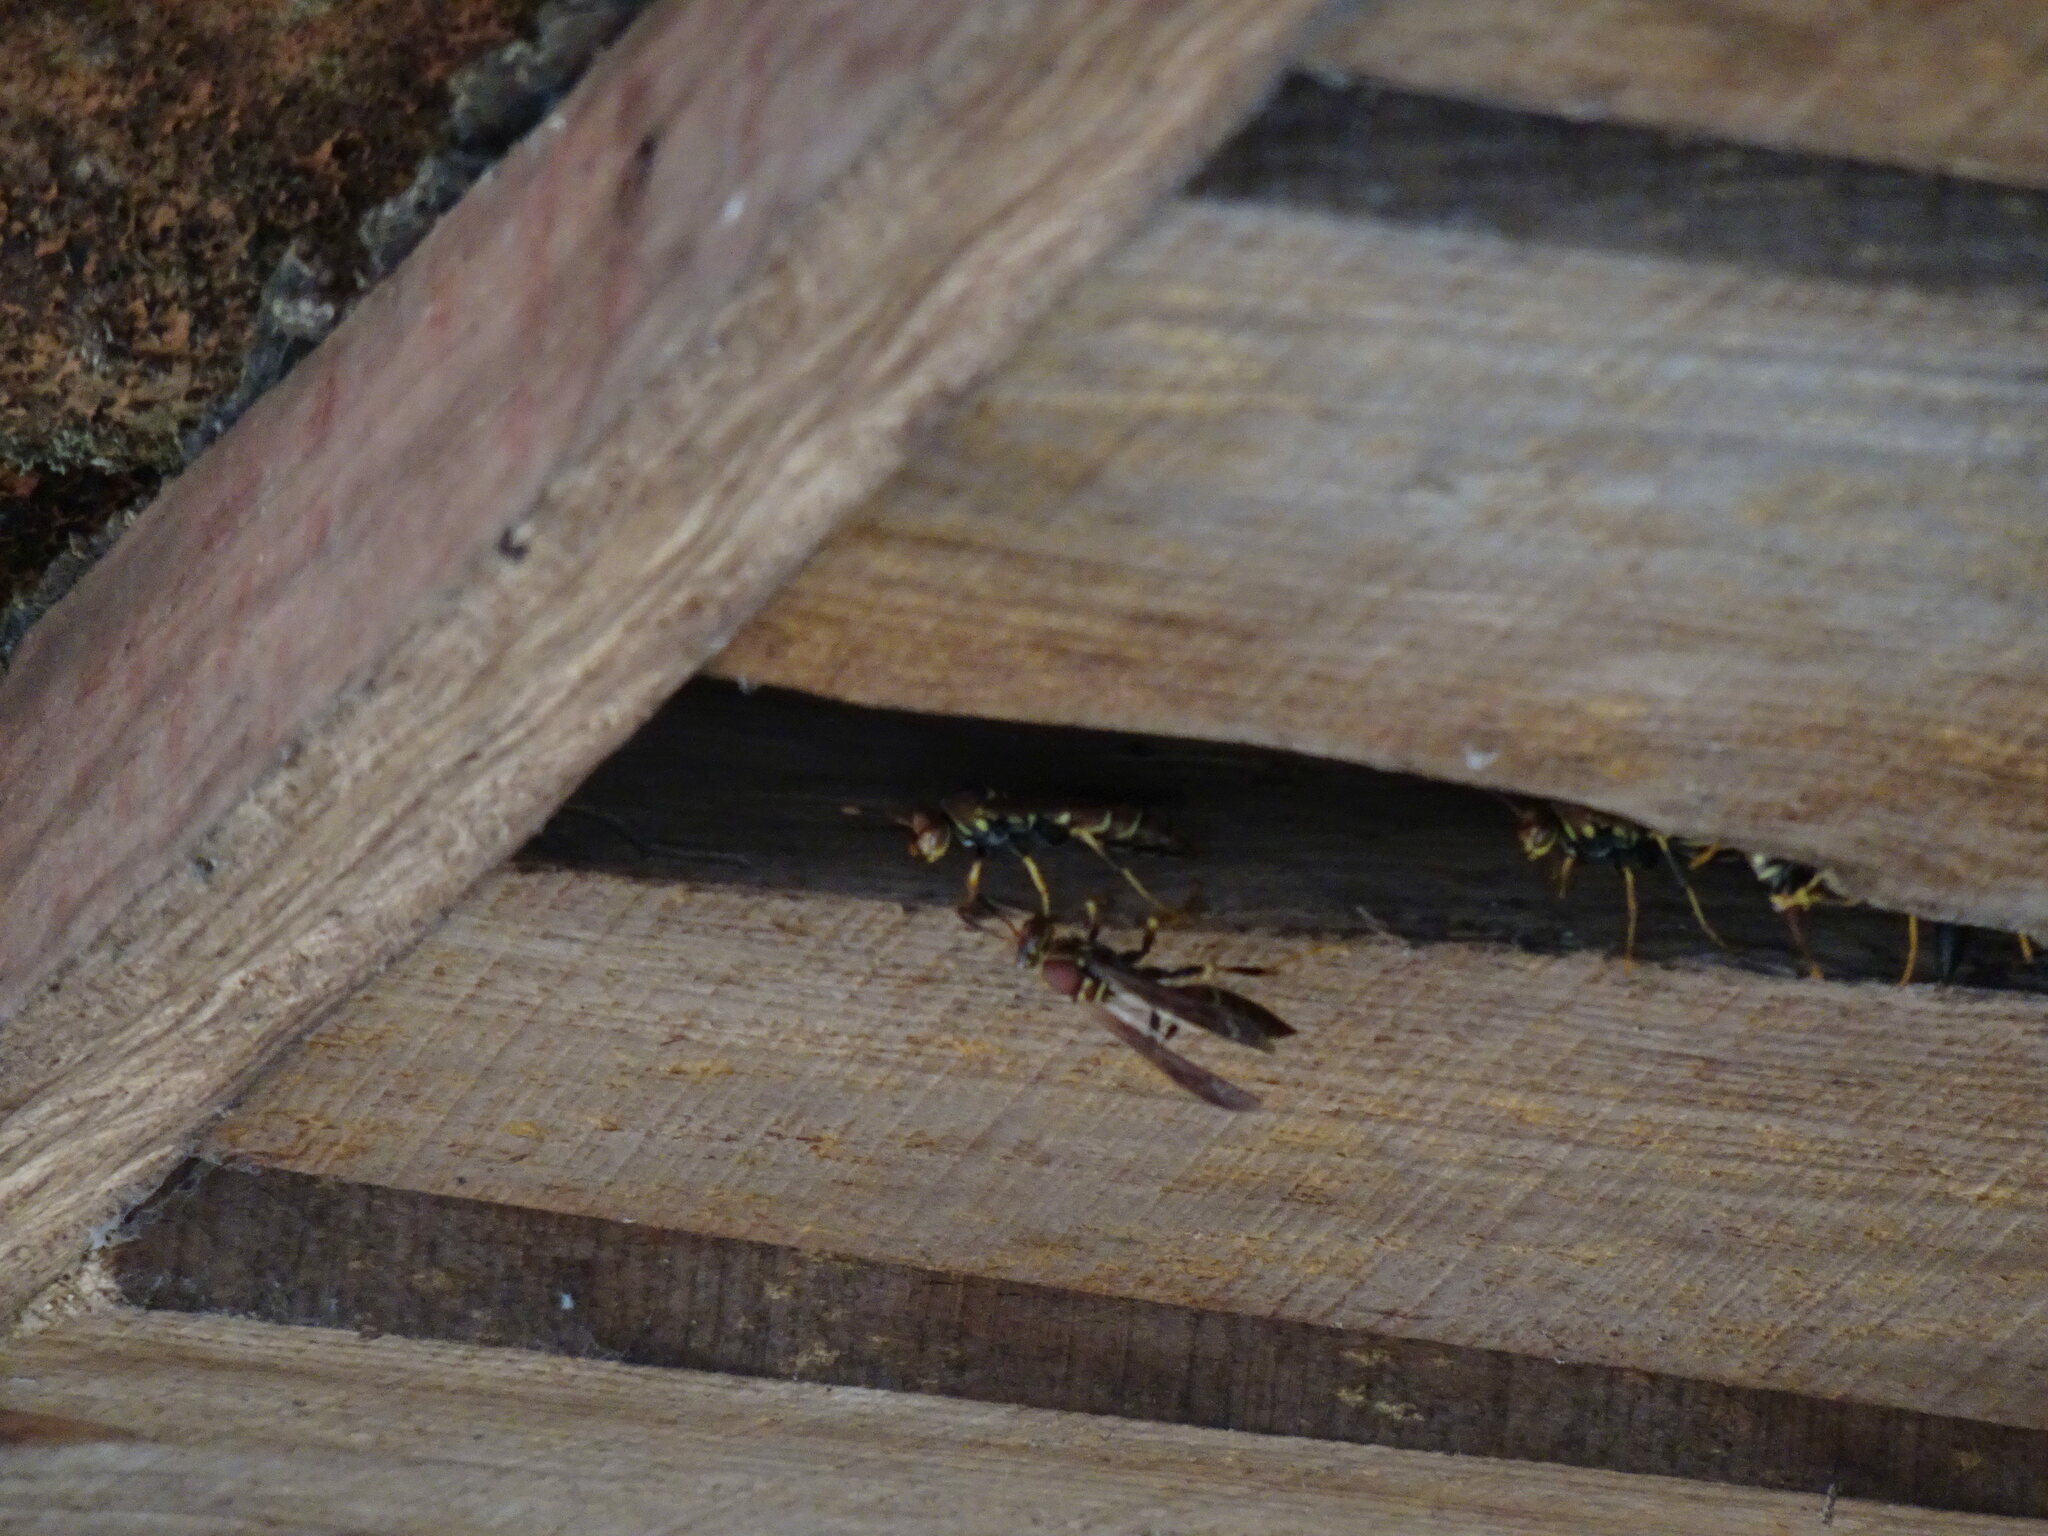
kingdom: Animalia
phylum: Arthropoda
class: Insecta
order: Hymenoptera
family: Eumenidae
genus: Polistes
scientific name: Polistes instabilis
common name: Unstable paper wasp
